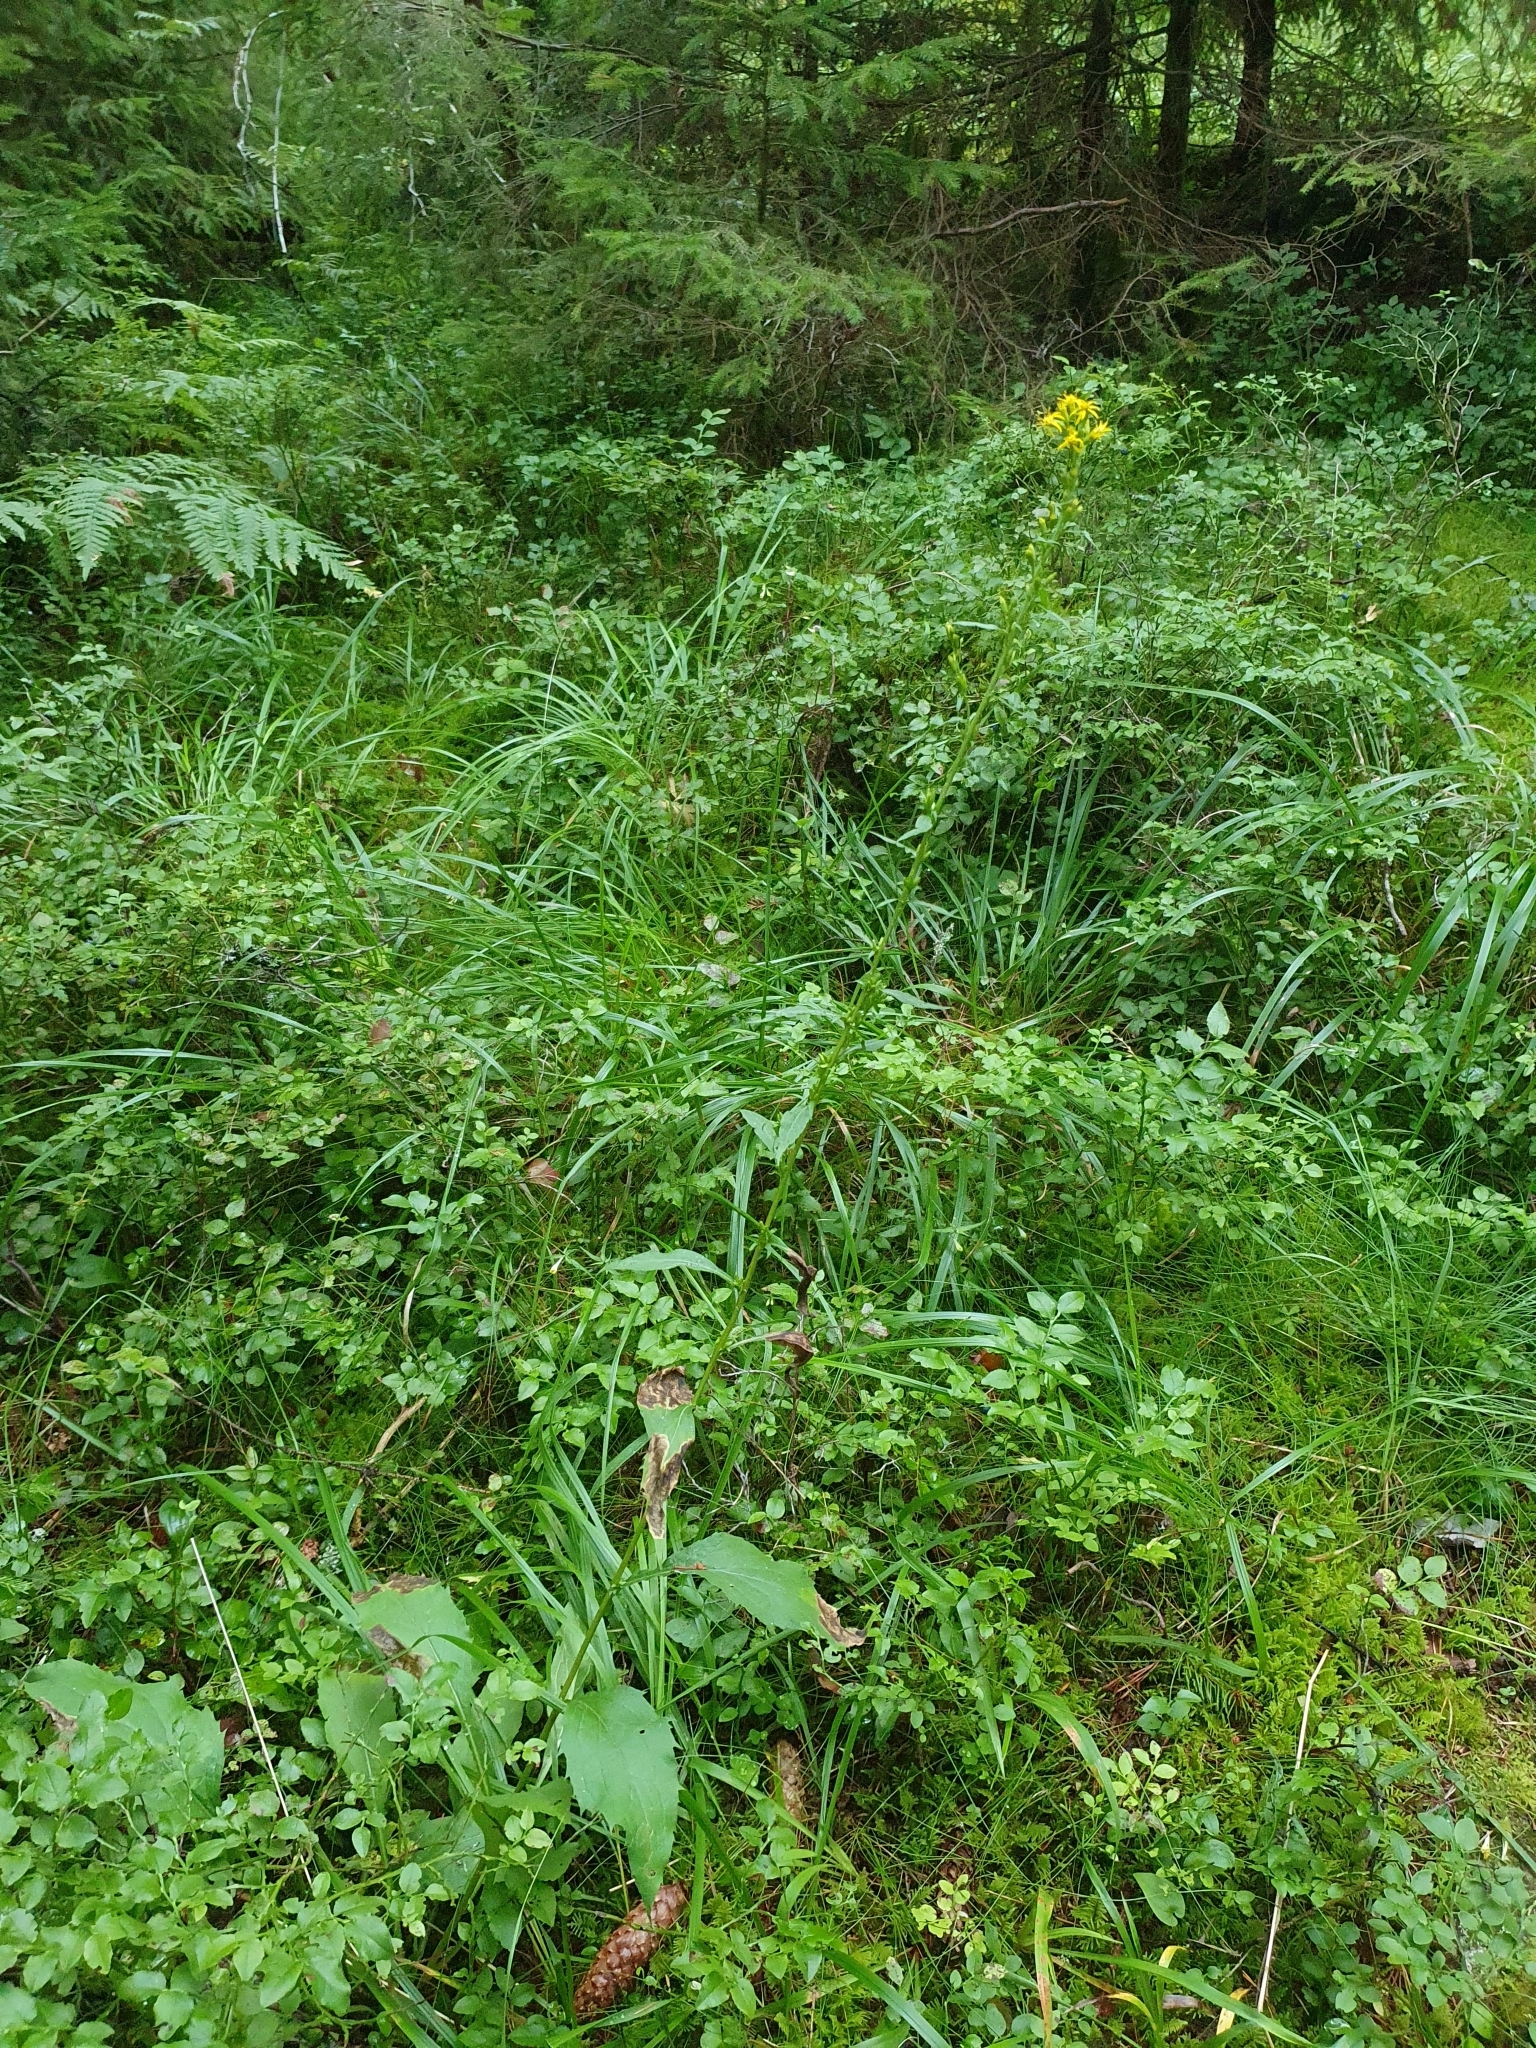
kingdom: Plantae
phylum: Tracheophyta
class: Magnoliopsida
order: Asterales
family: Asteraceae
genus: Solidago
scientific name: Solidago virgaurea
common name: Goldenrod
